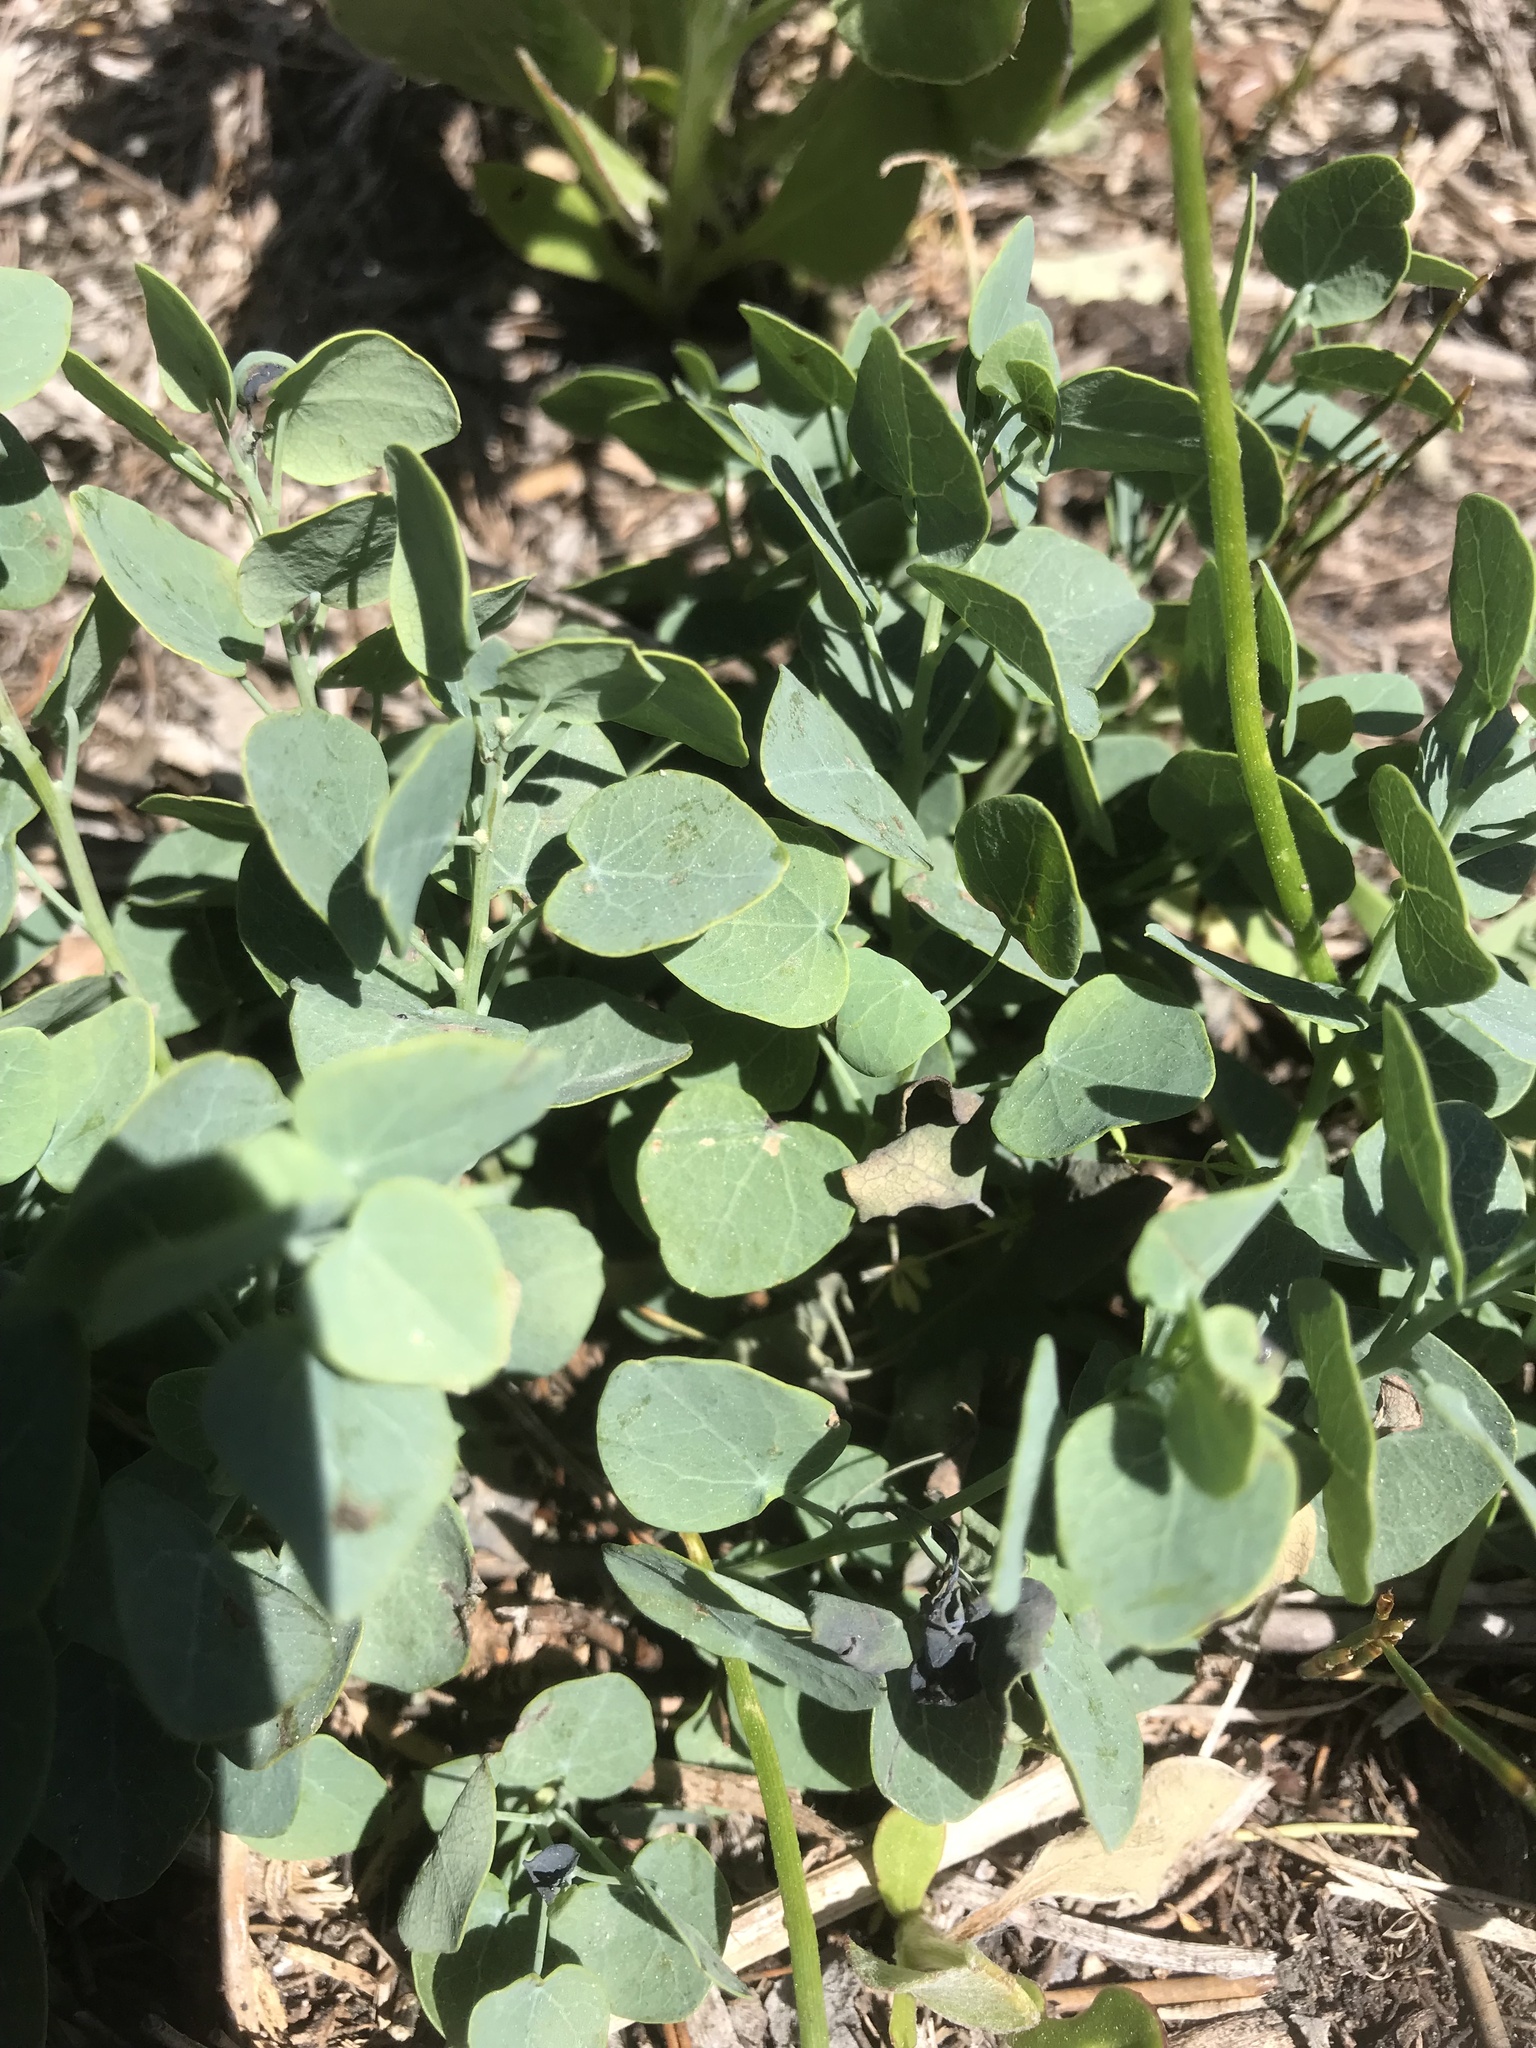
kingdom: Plantae
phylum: Tracheophyta
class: Magnoliopsida
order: Ranunculales
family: Menispermaceae
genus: Cissampelos
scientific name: Cissampelos capensis
